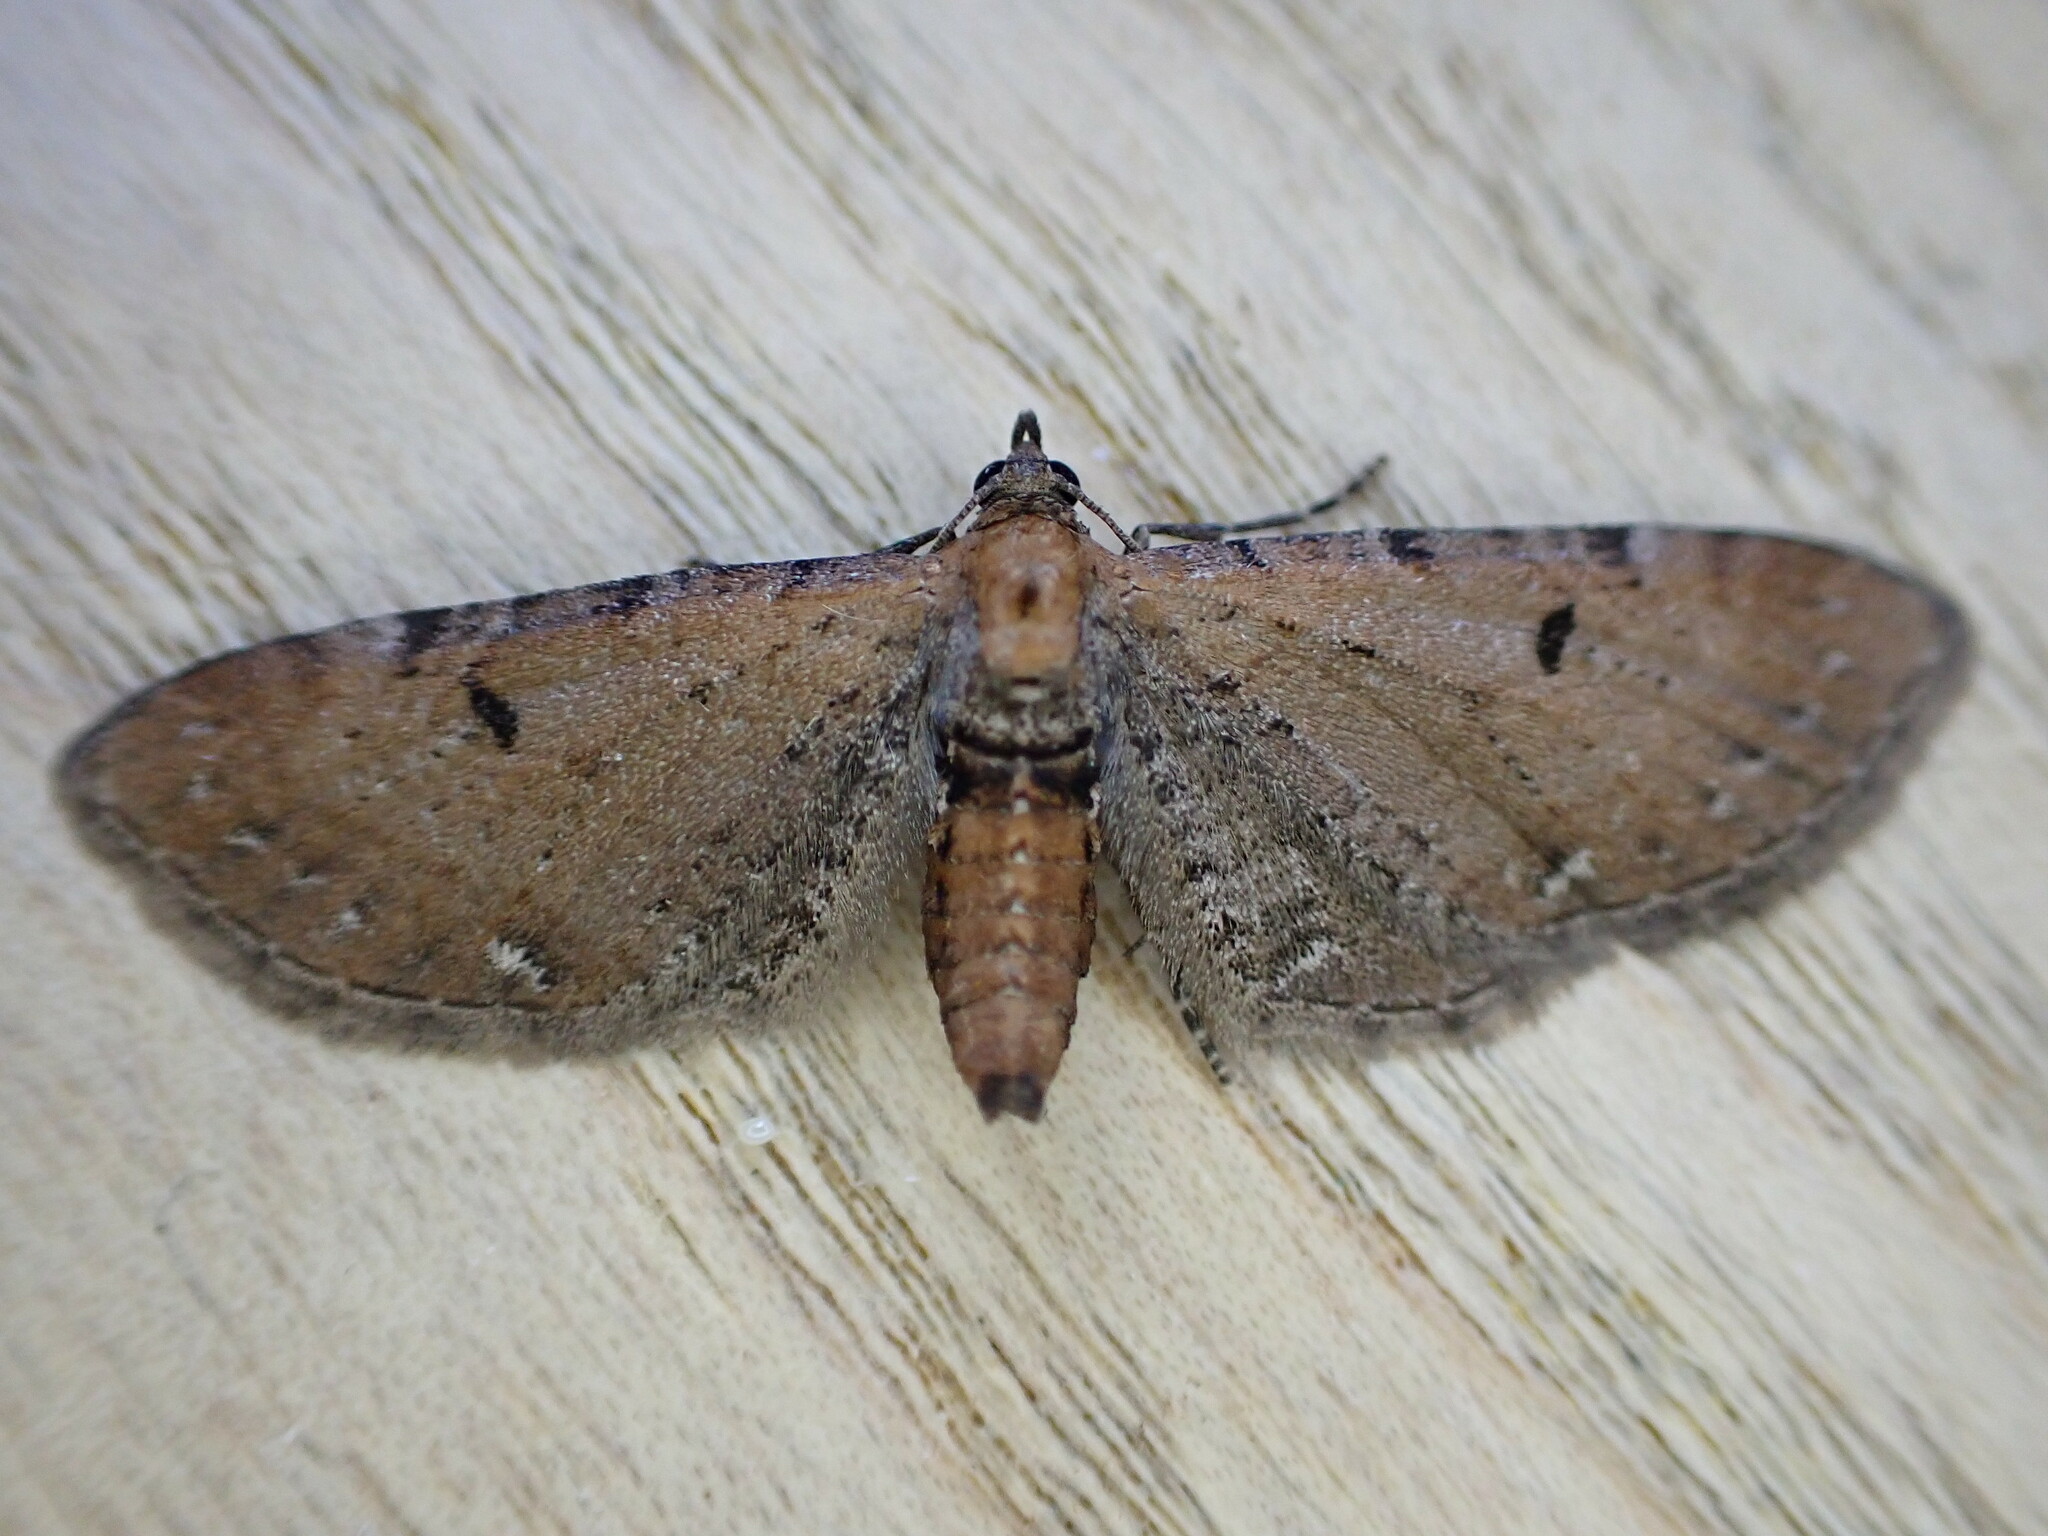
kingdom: Animalia
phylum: Arthropoda
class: Insecta
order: Lepidoptera
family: Geometridae
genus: Eupithecia
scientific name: Eupithecia absinthiata
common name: Wormwood pug
